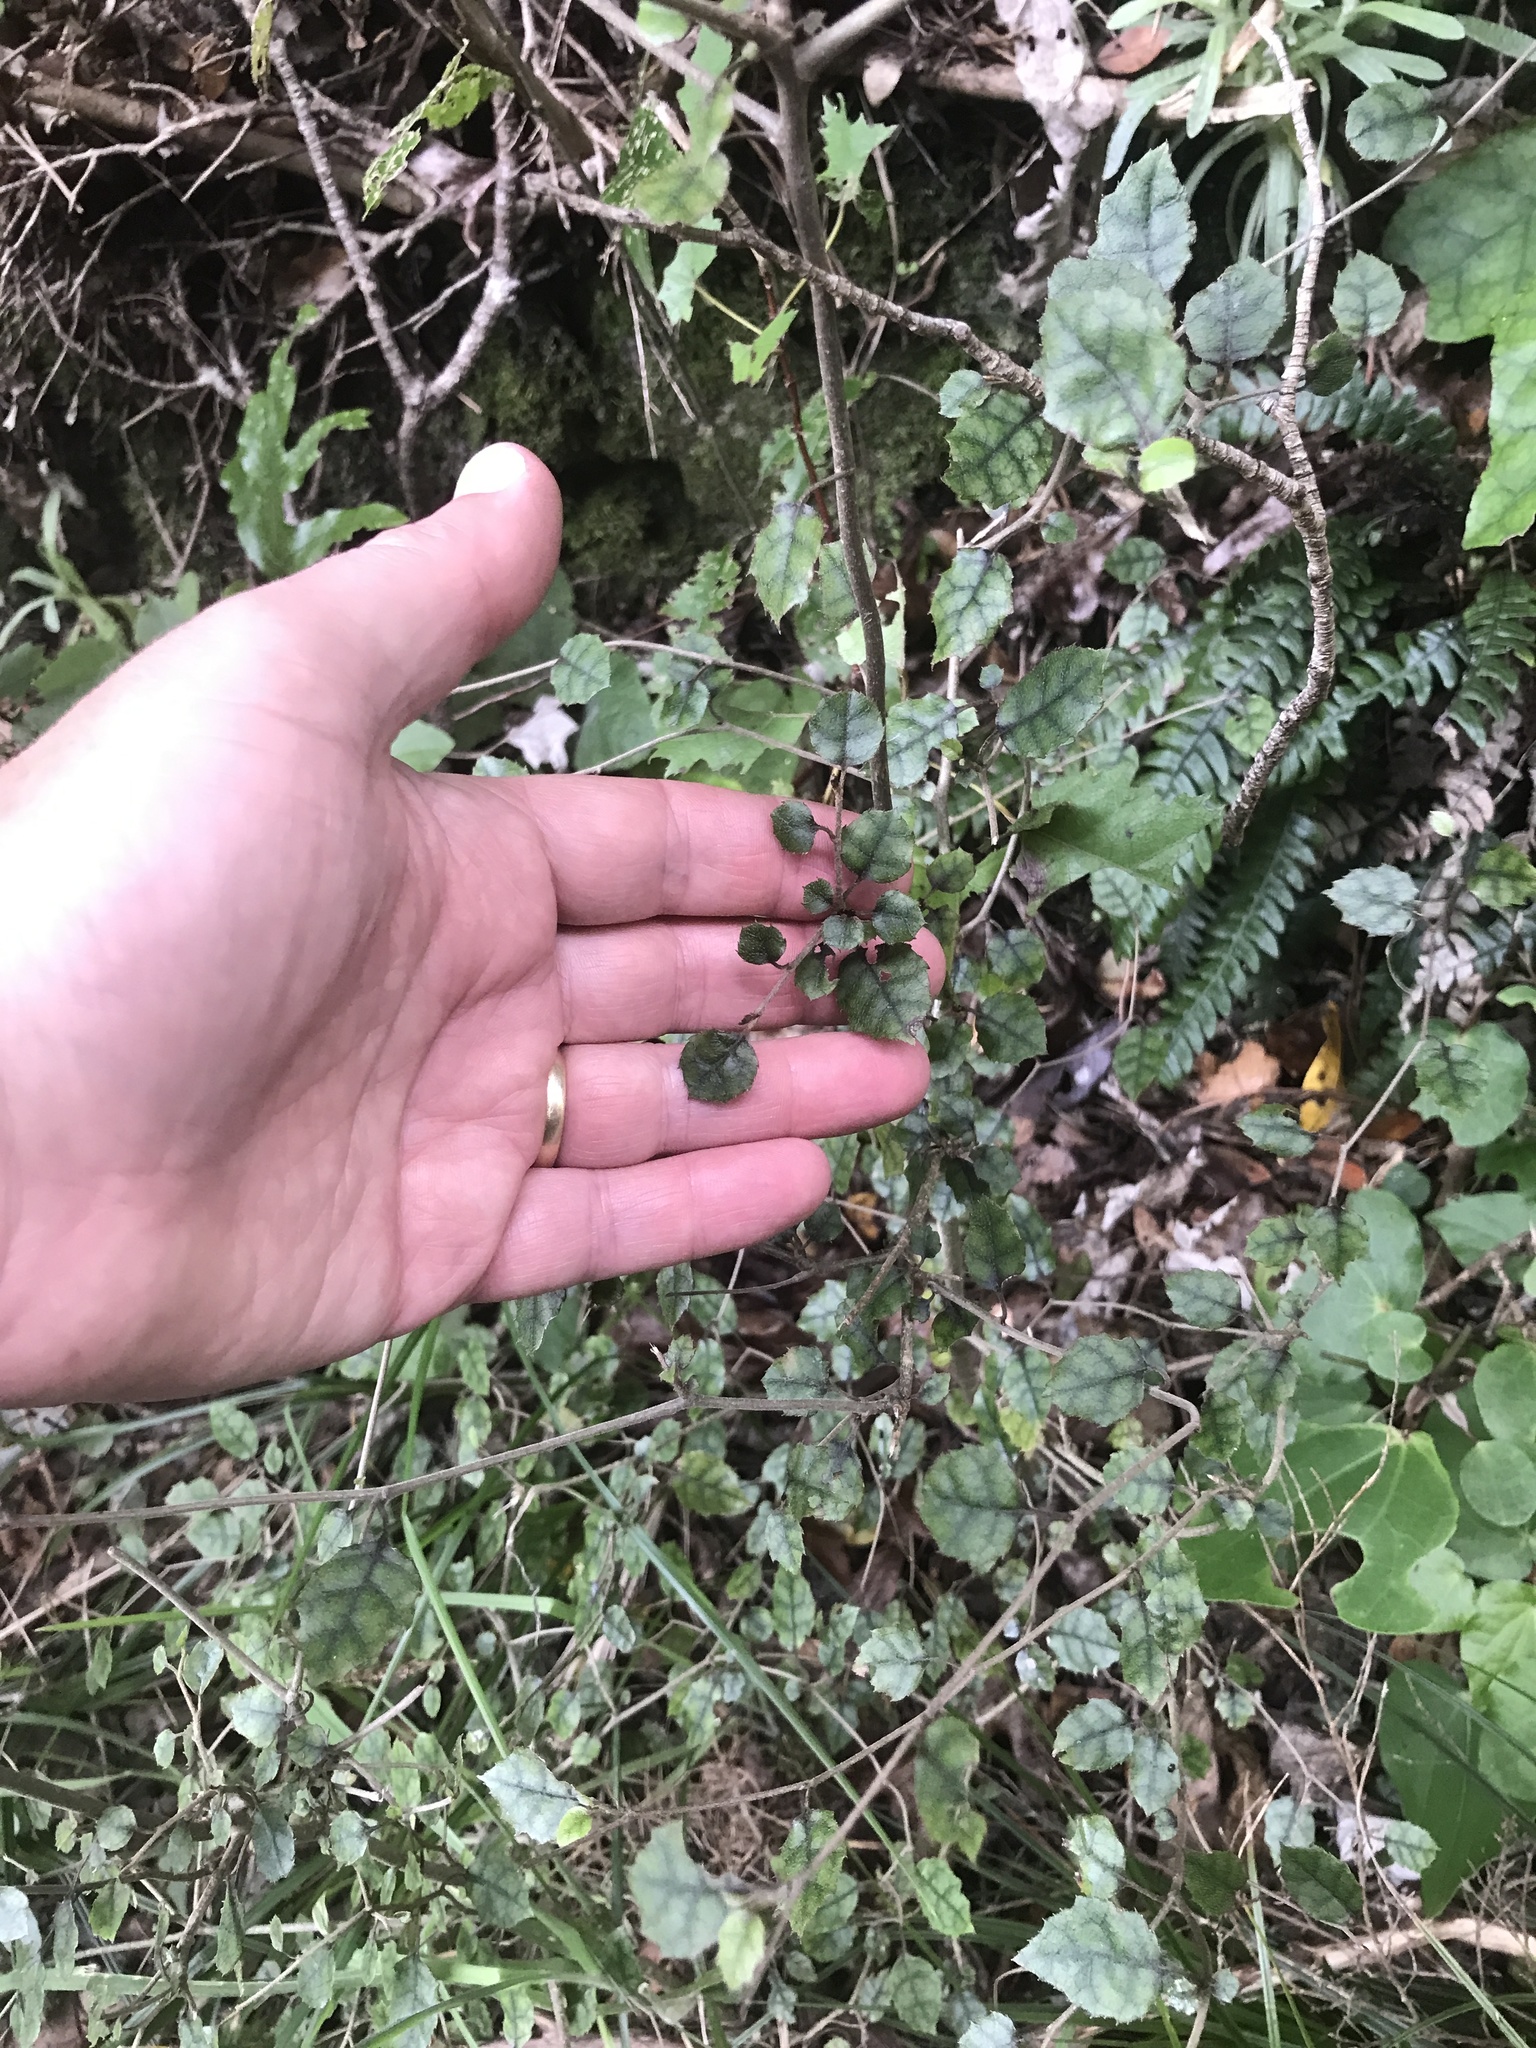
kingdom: Plantae
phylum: Tracheophyta
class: Magnoliopsida
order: Asterales
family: Rousseaceae
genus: Carpodetus
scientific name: Carpodetus serratus
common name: White mapau
